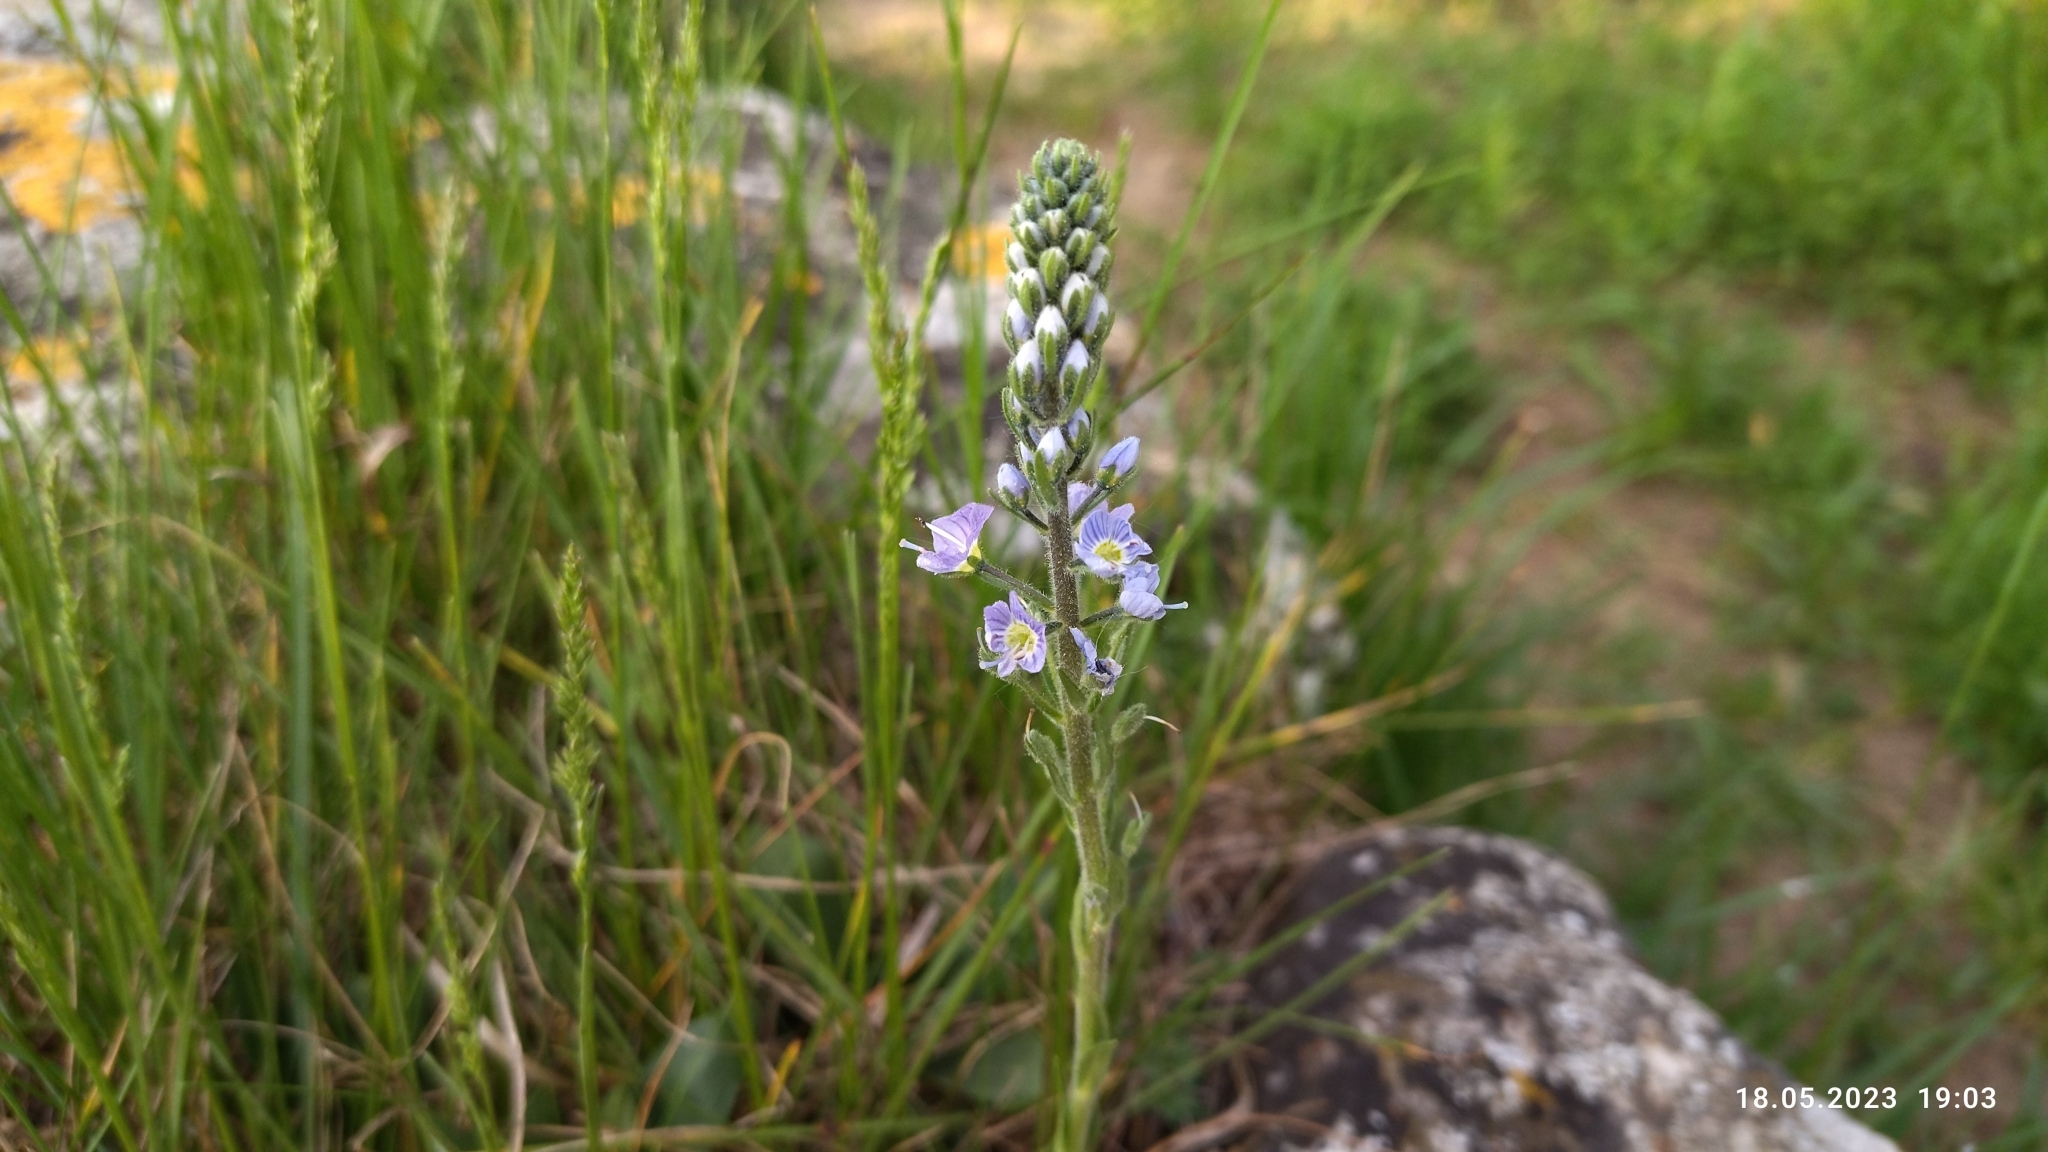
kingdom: Plantae
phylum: Tracheophyta
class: Magnoliopsida
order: Lamiales
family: Plantaginaceae
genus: Veronica
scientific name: Veronica gentianoides
